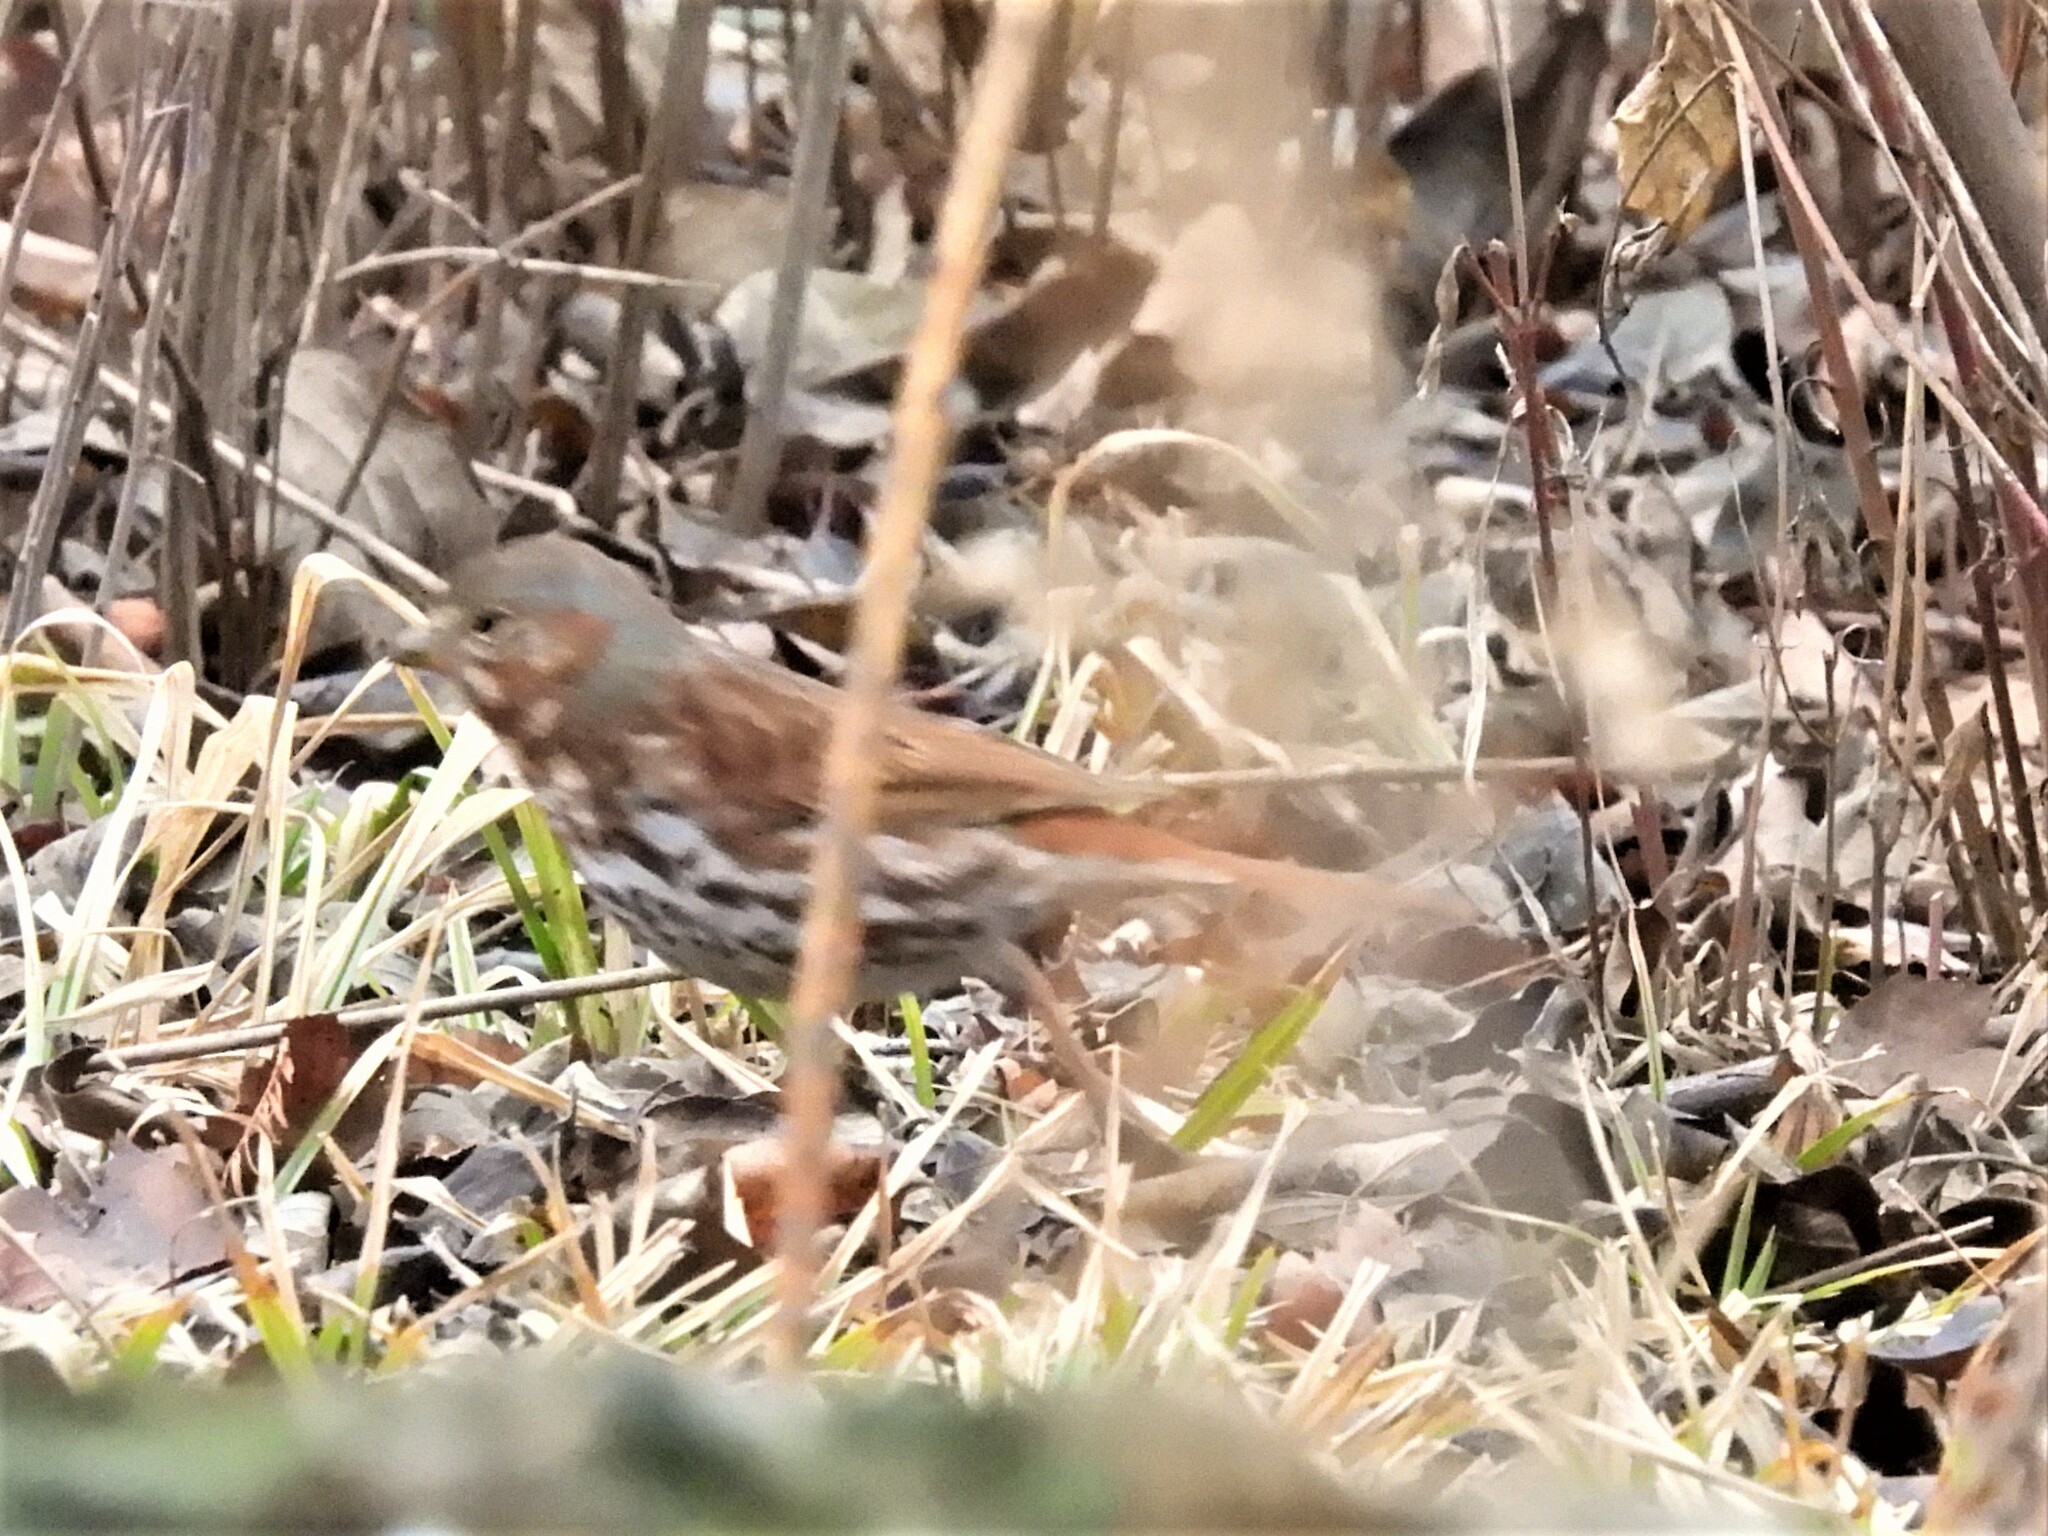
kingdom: Animalia
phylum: Chordata
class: Aves
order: Passeriformes
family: Passerellidae
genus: Passerella
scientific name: Passerella iliaca
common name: Fox sparrow
